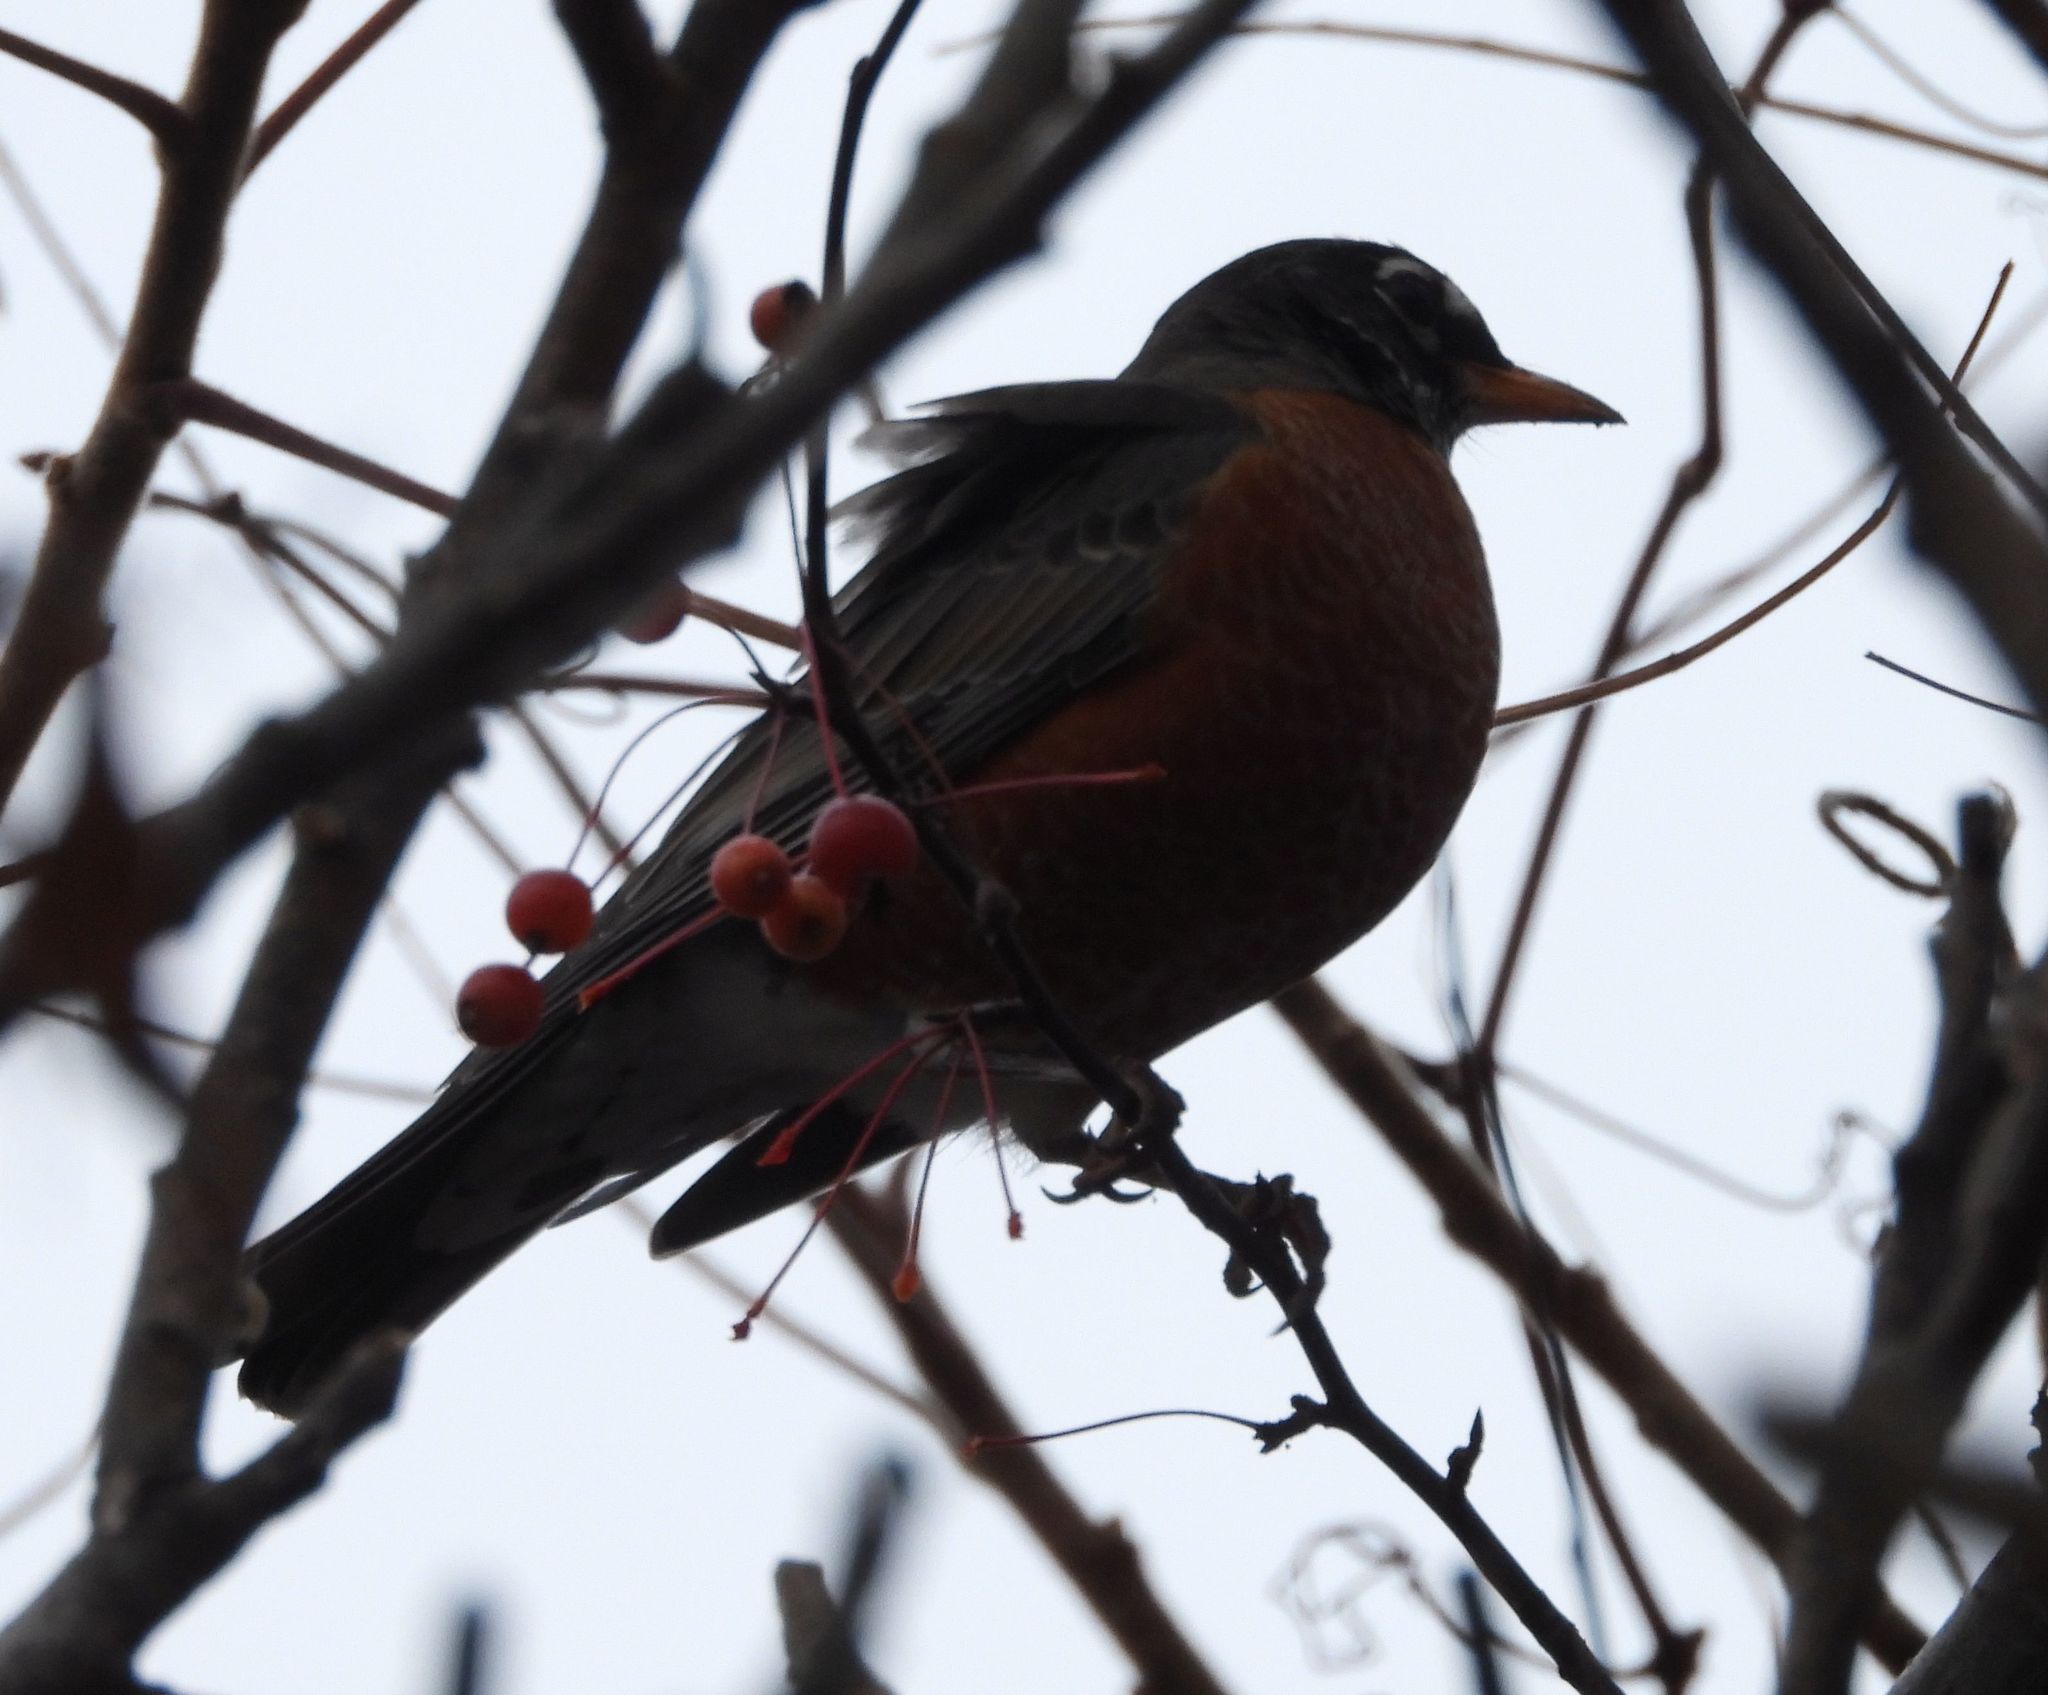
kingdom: Animalia
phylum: Chordata
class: Aves
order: Passeriformes
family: Turdidae
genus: Turdus
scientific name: Turdus migratorius
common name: American robin
